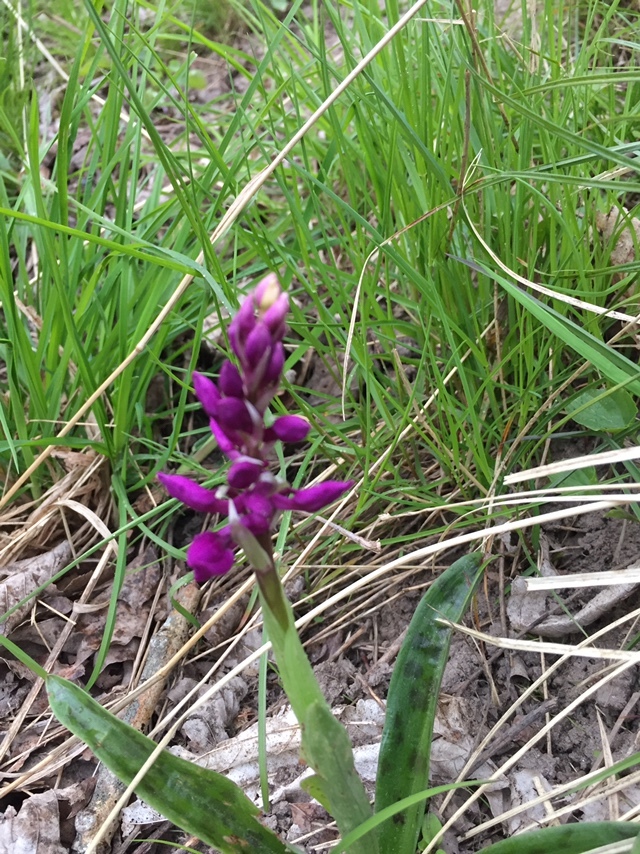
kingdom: Plantae
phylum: Tracheophyta
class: Liliopsida
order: Asparagales
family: Orchidaceae
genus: Orchis
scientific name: Orchis mascula
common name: Early-purple orchid
